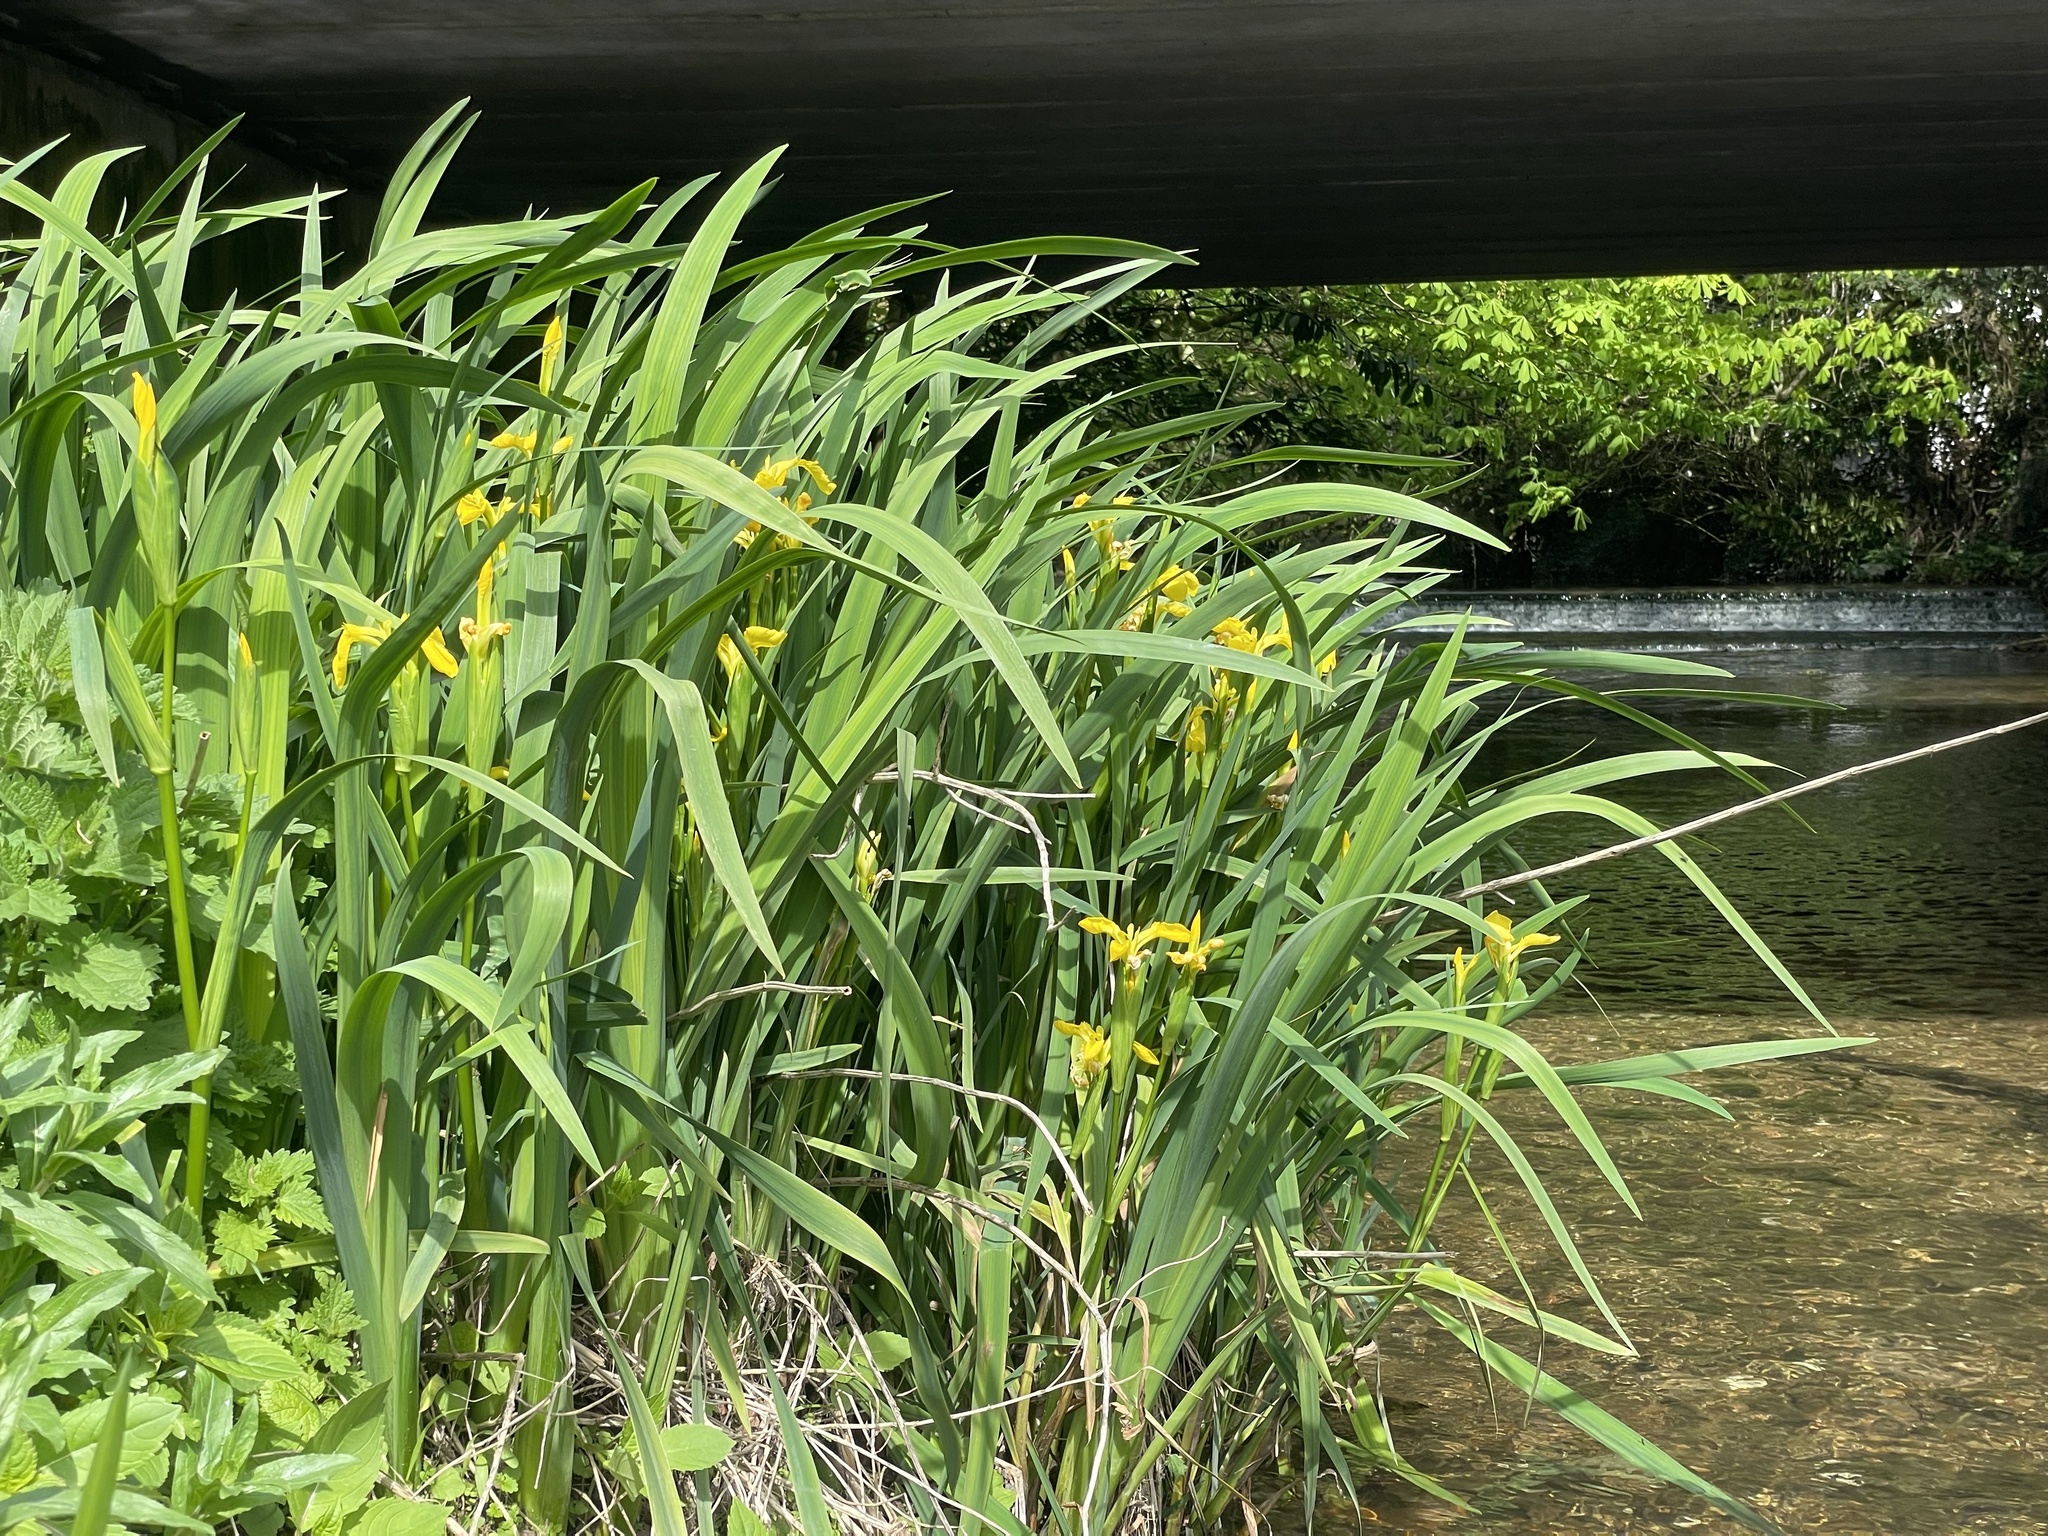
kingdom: Plantae
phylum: Tracheophyta
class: Liliopsida
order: Asparagales
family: Iridaceae
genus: Iris
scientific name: Iris pseudacorus
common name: Yellow flag
